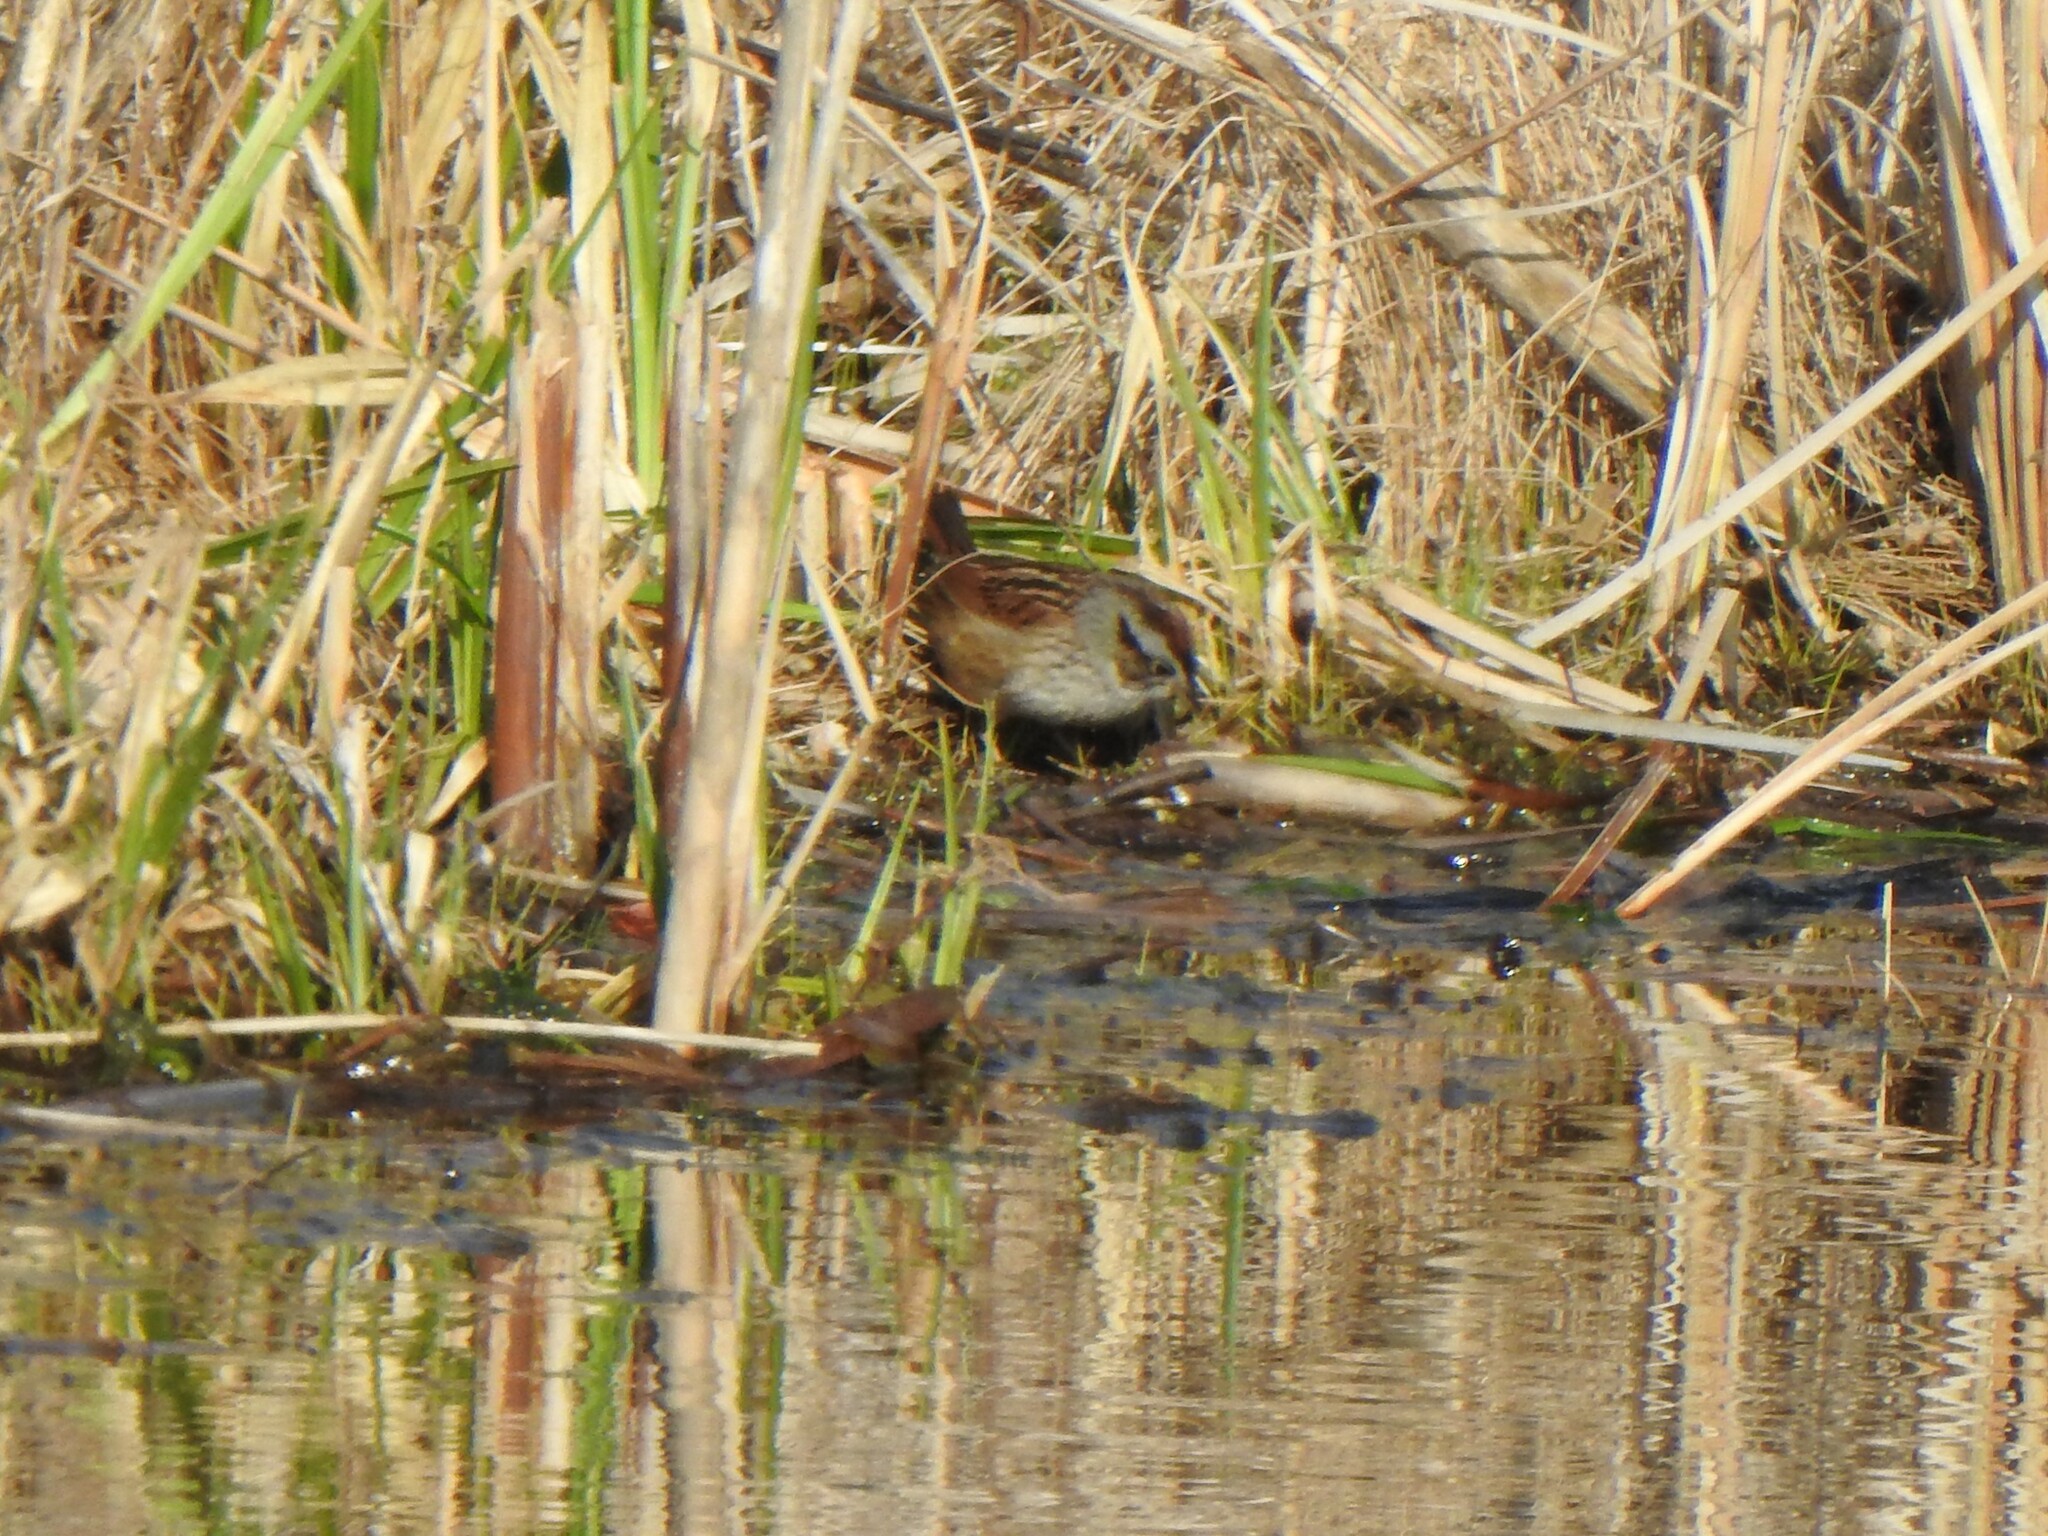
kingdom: Animalia
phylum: Chordata
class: Aves
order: Passeriformes
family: Passerellidae
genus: Melospiza
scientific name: Melospiza georgiana
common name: Swamp sparrow
